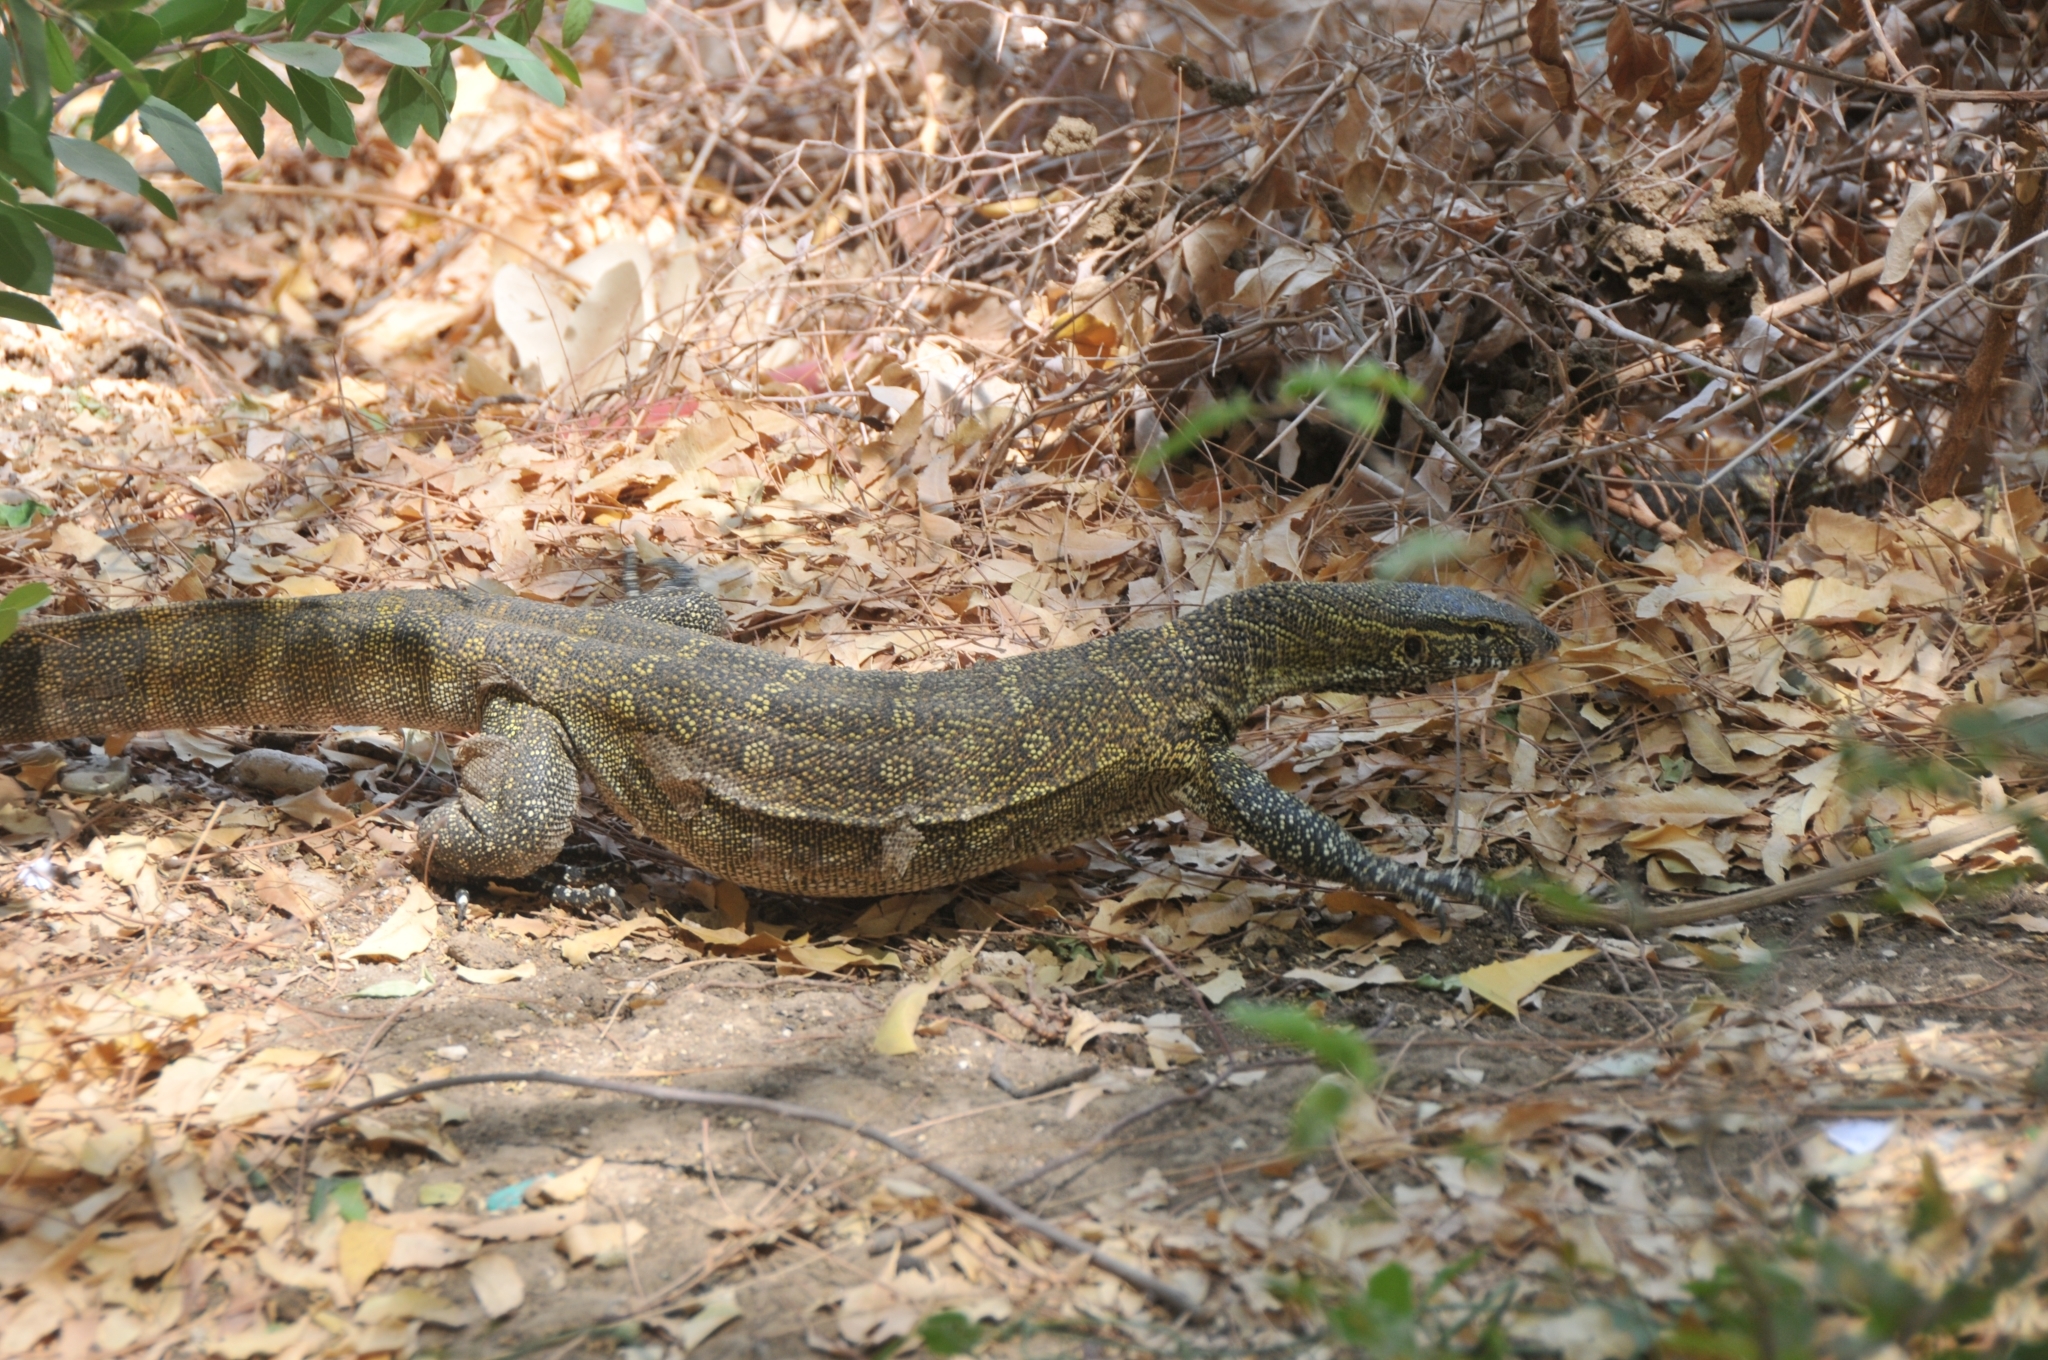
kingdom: Animalia
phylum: Chordata
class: Squamata
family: Varanidae
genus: Varanus
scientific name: Varanus niloticus
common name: Nile monitor
